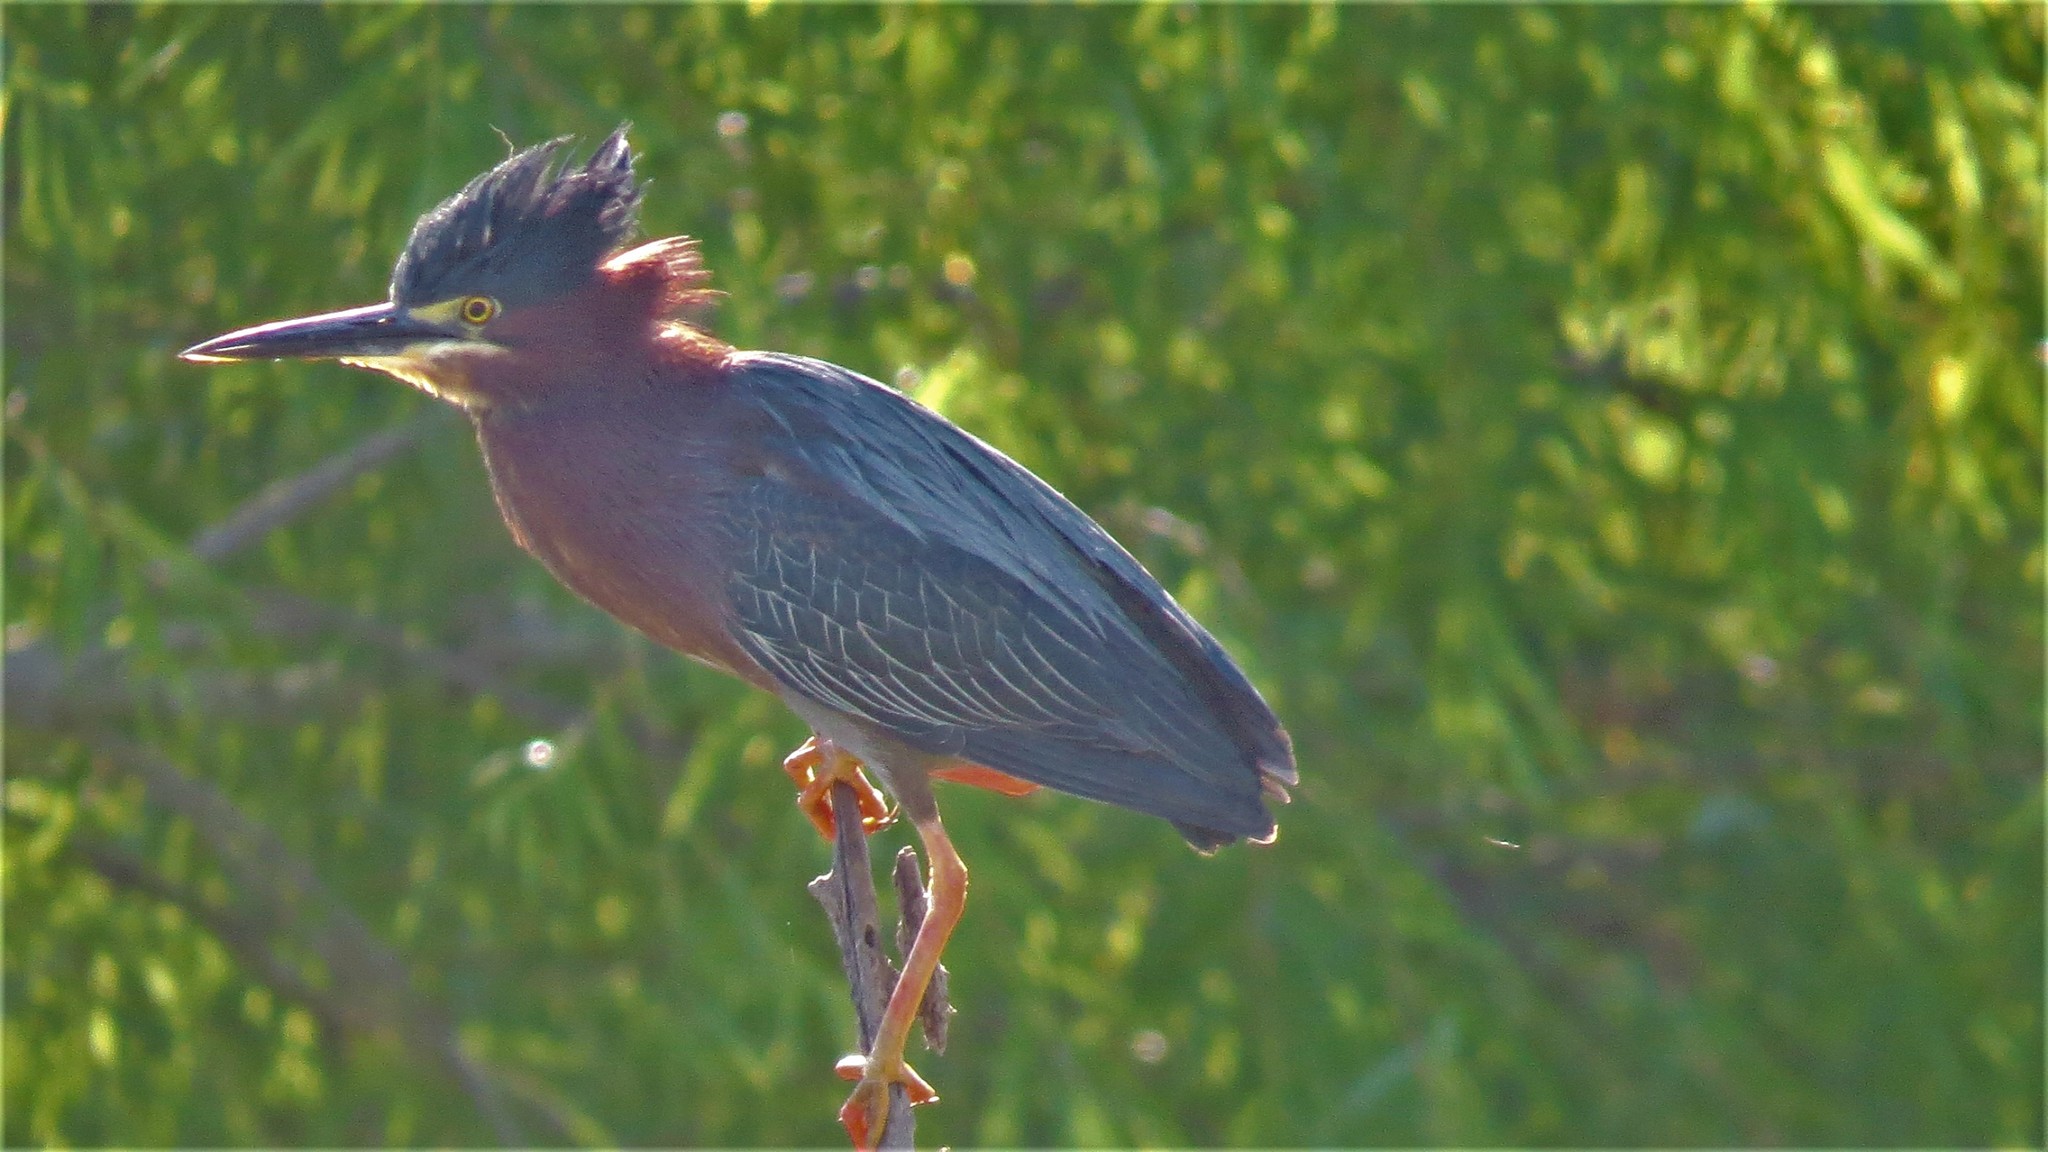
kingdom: Animalia
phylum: Chordata
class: Aves
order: Pelecaniformes
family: Ardeidae
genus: Butorides
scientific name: Butorides virescens
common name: Green heron
